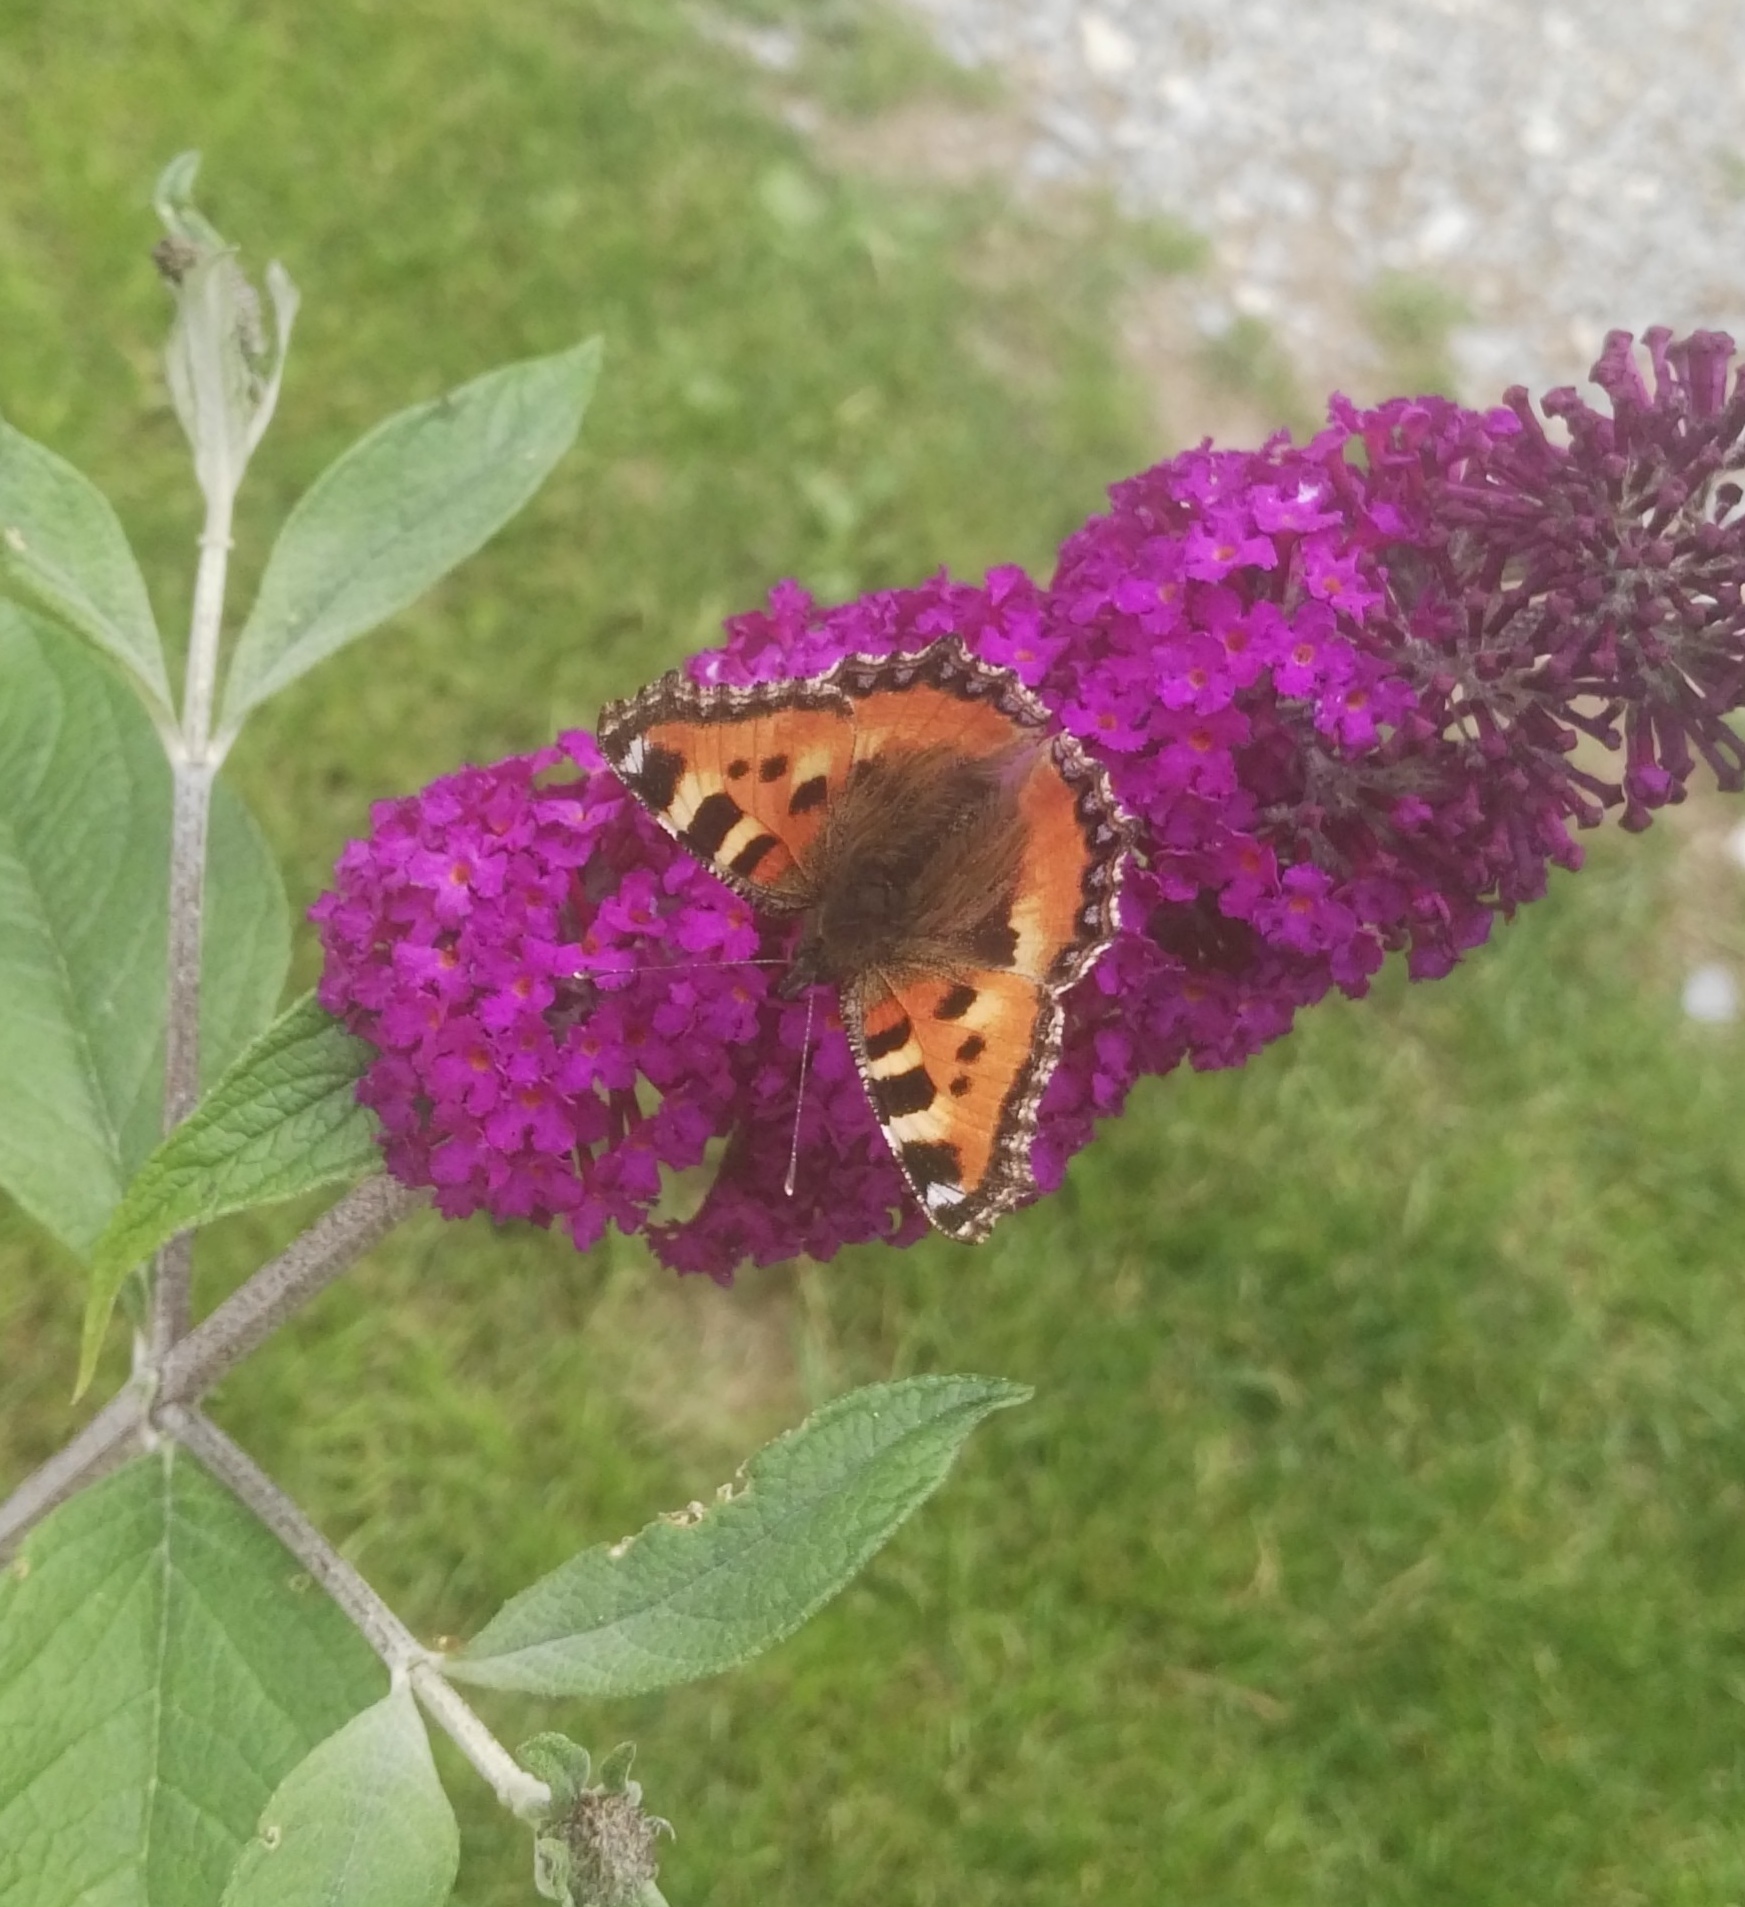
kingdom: Animalia
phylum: Arthropoda
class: Insecta
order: Lepidoptera
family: Nymphalidae
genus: Aglais
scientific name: Aglais urticae
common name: Small tortoiseshell
